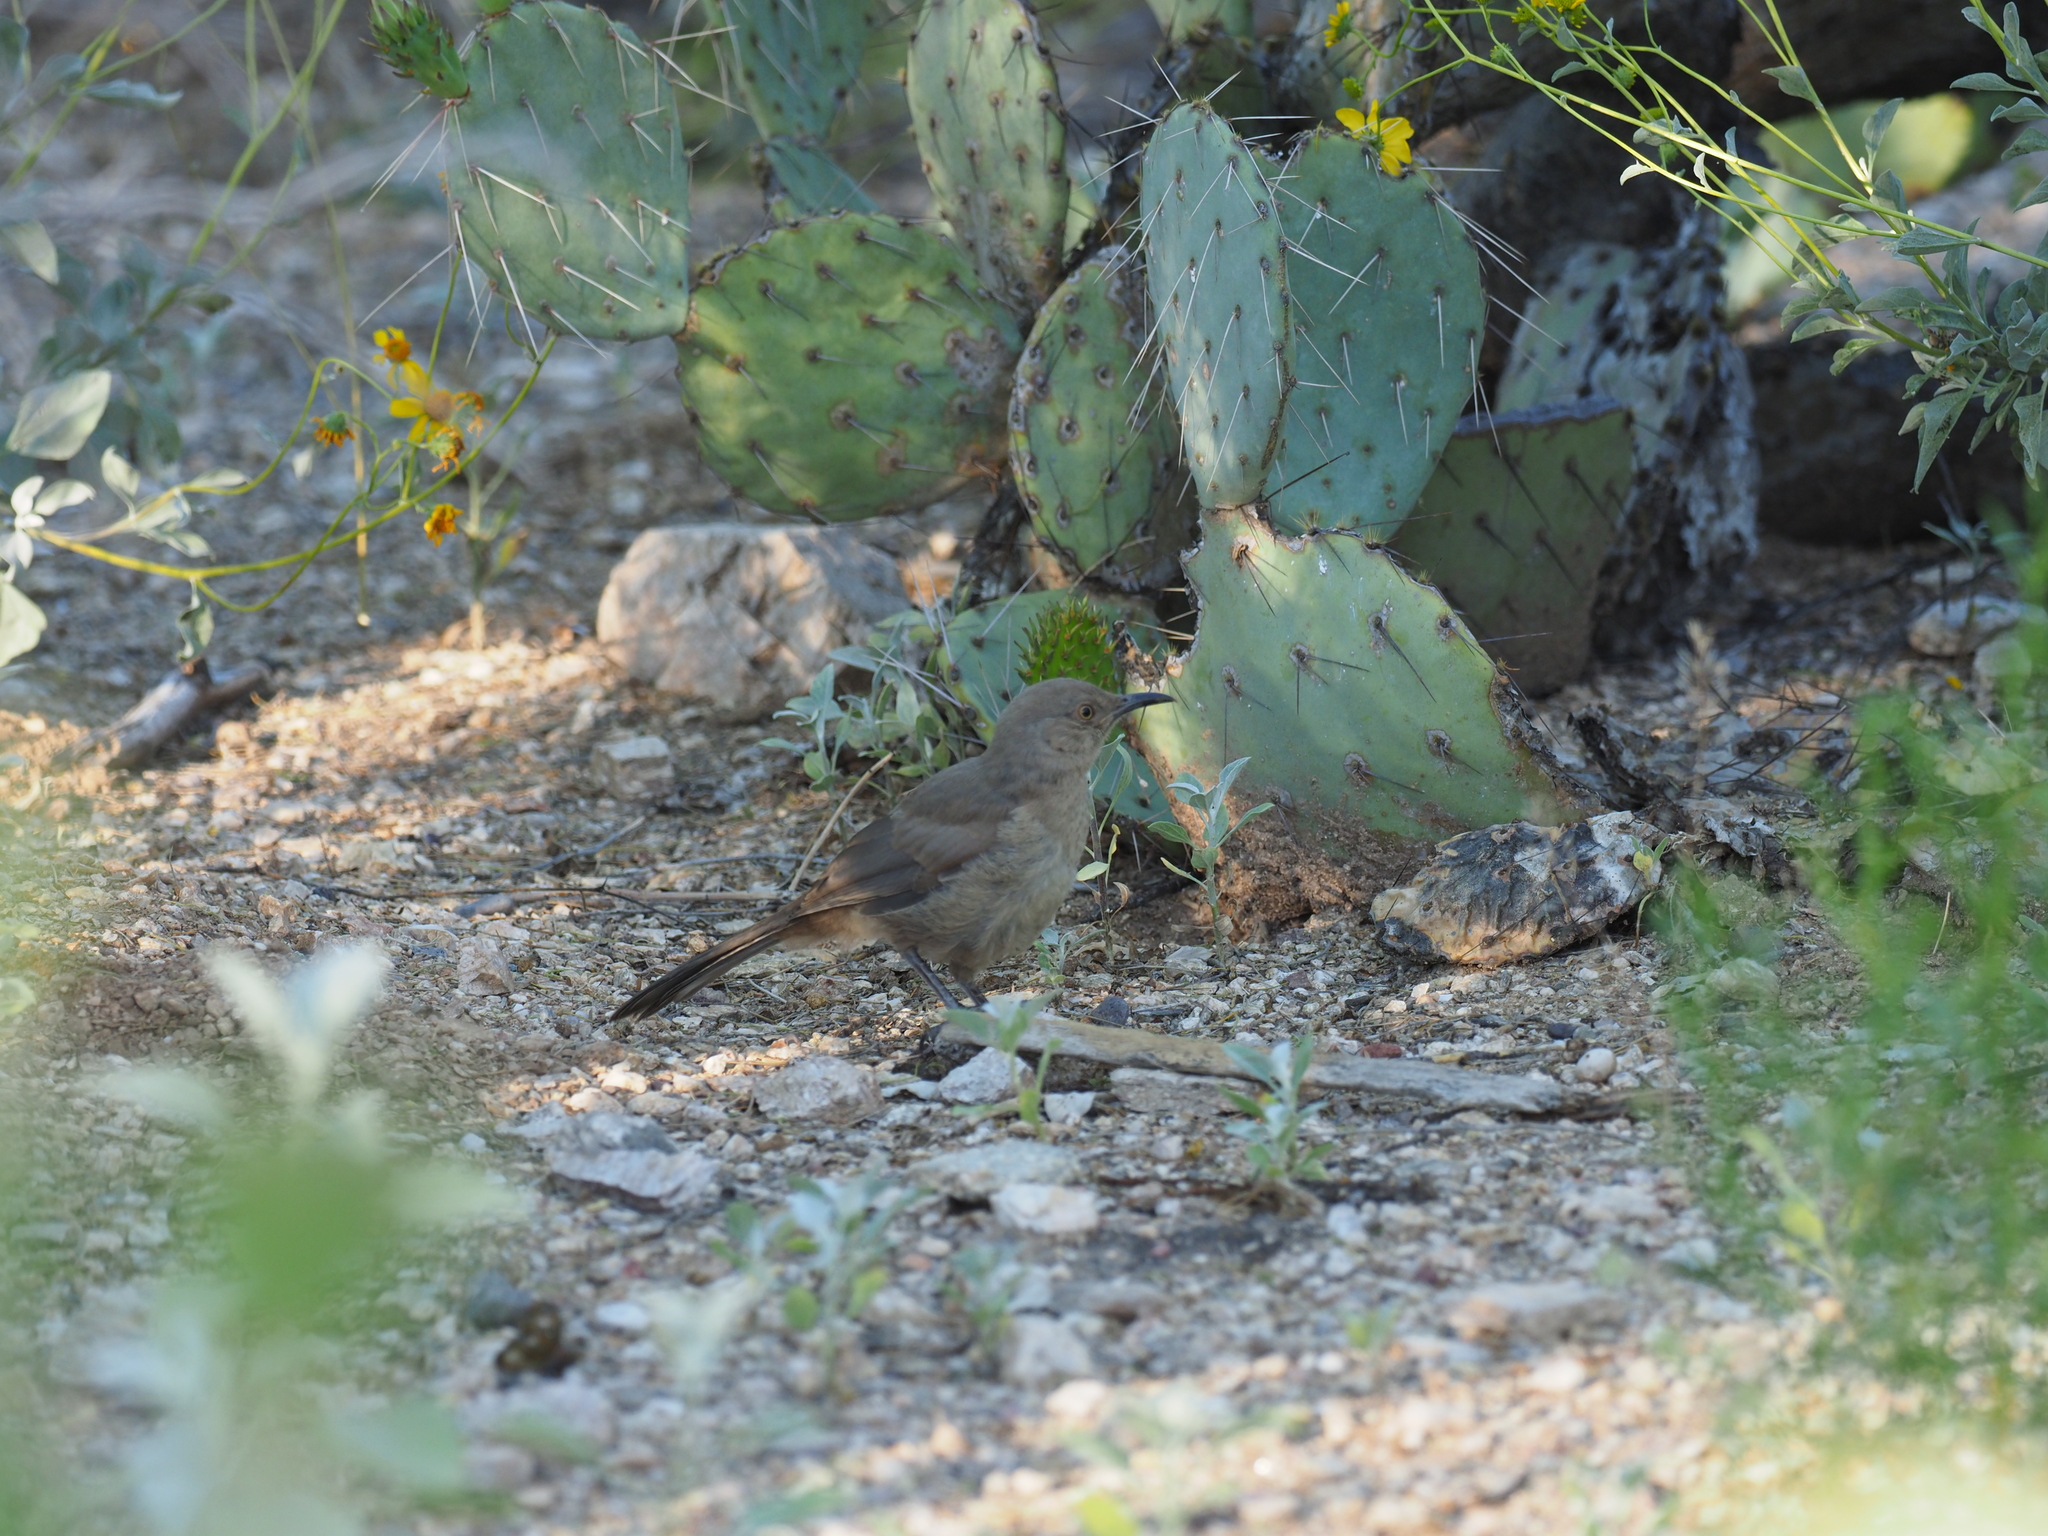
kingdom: Animalia
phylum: Chordata
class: Aves
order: Passeriformes
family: Mimidae
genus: Toxostoma
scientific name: Toxostoma curvirostre
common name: Curve-billed thrasher
